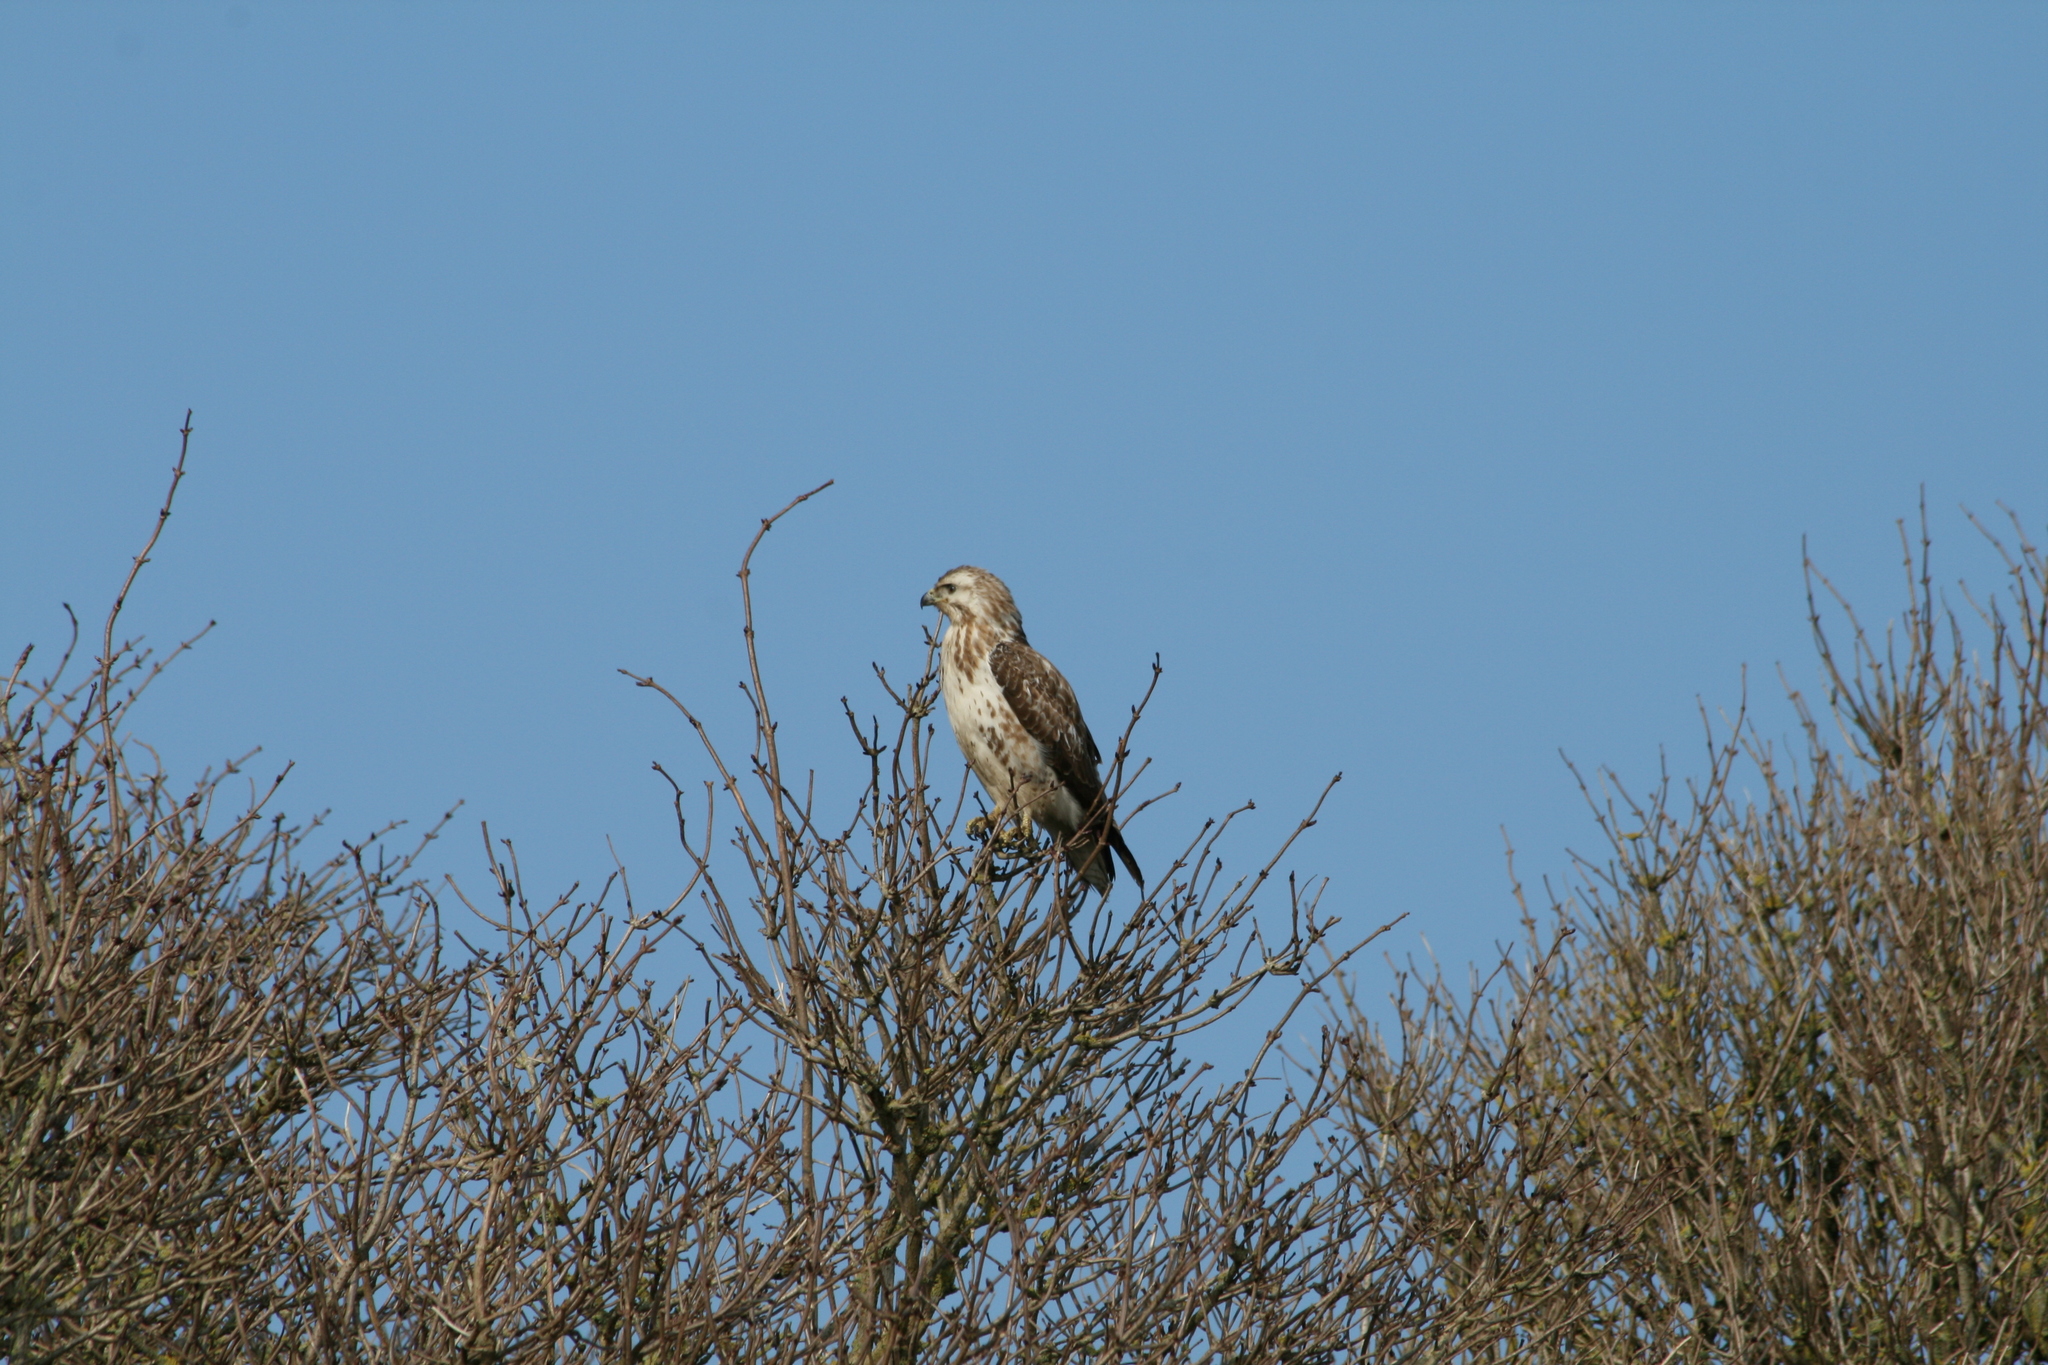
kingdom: Animalia
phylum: Chordata
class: Aves
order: Accipitriformes
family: Accipitridae
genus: Buteo
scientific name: Buteo buteo
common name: Common buzzard
